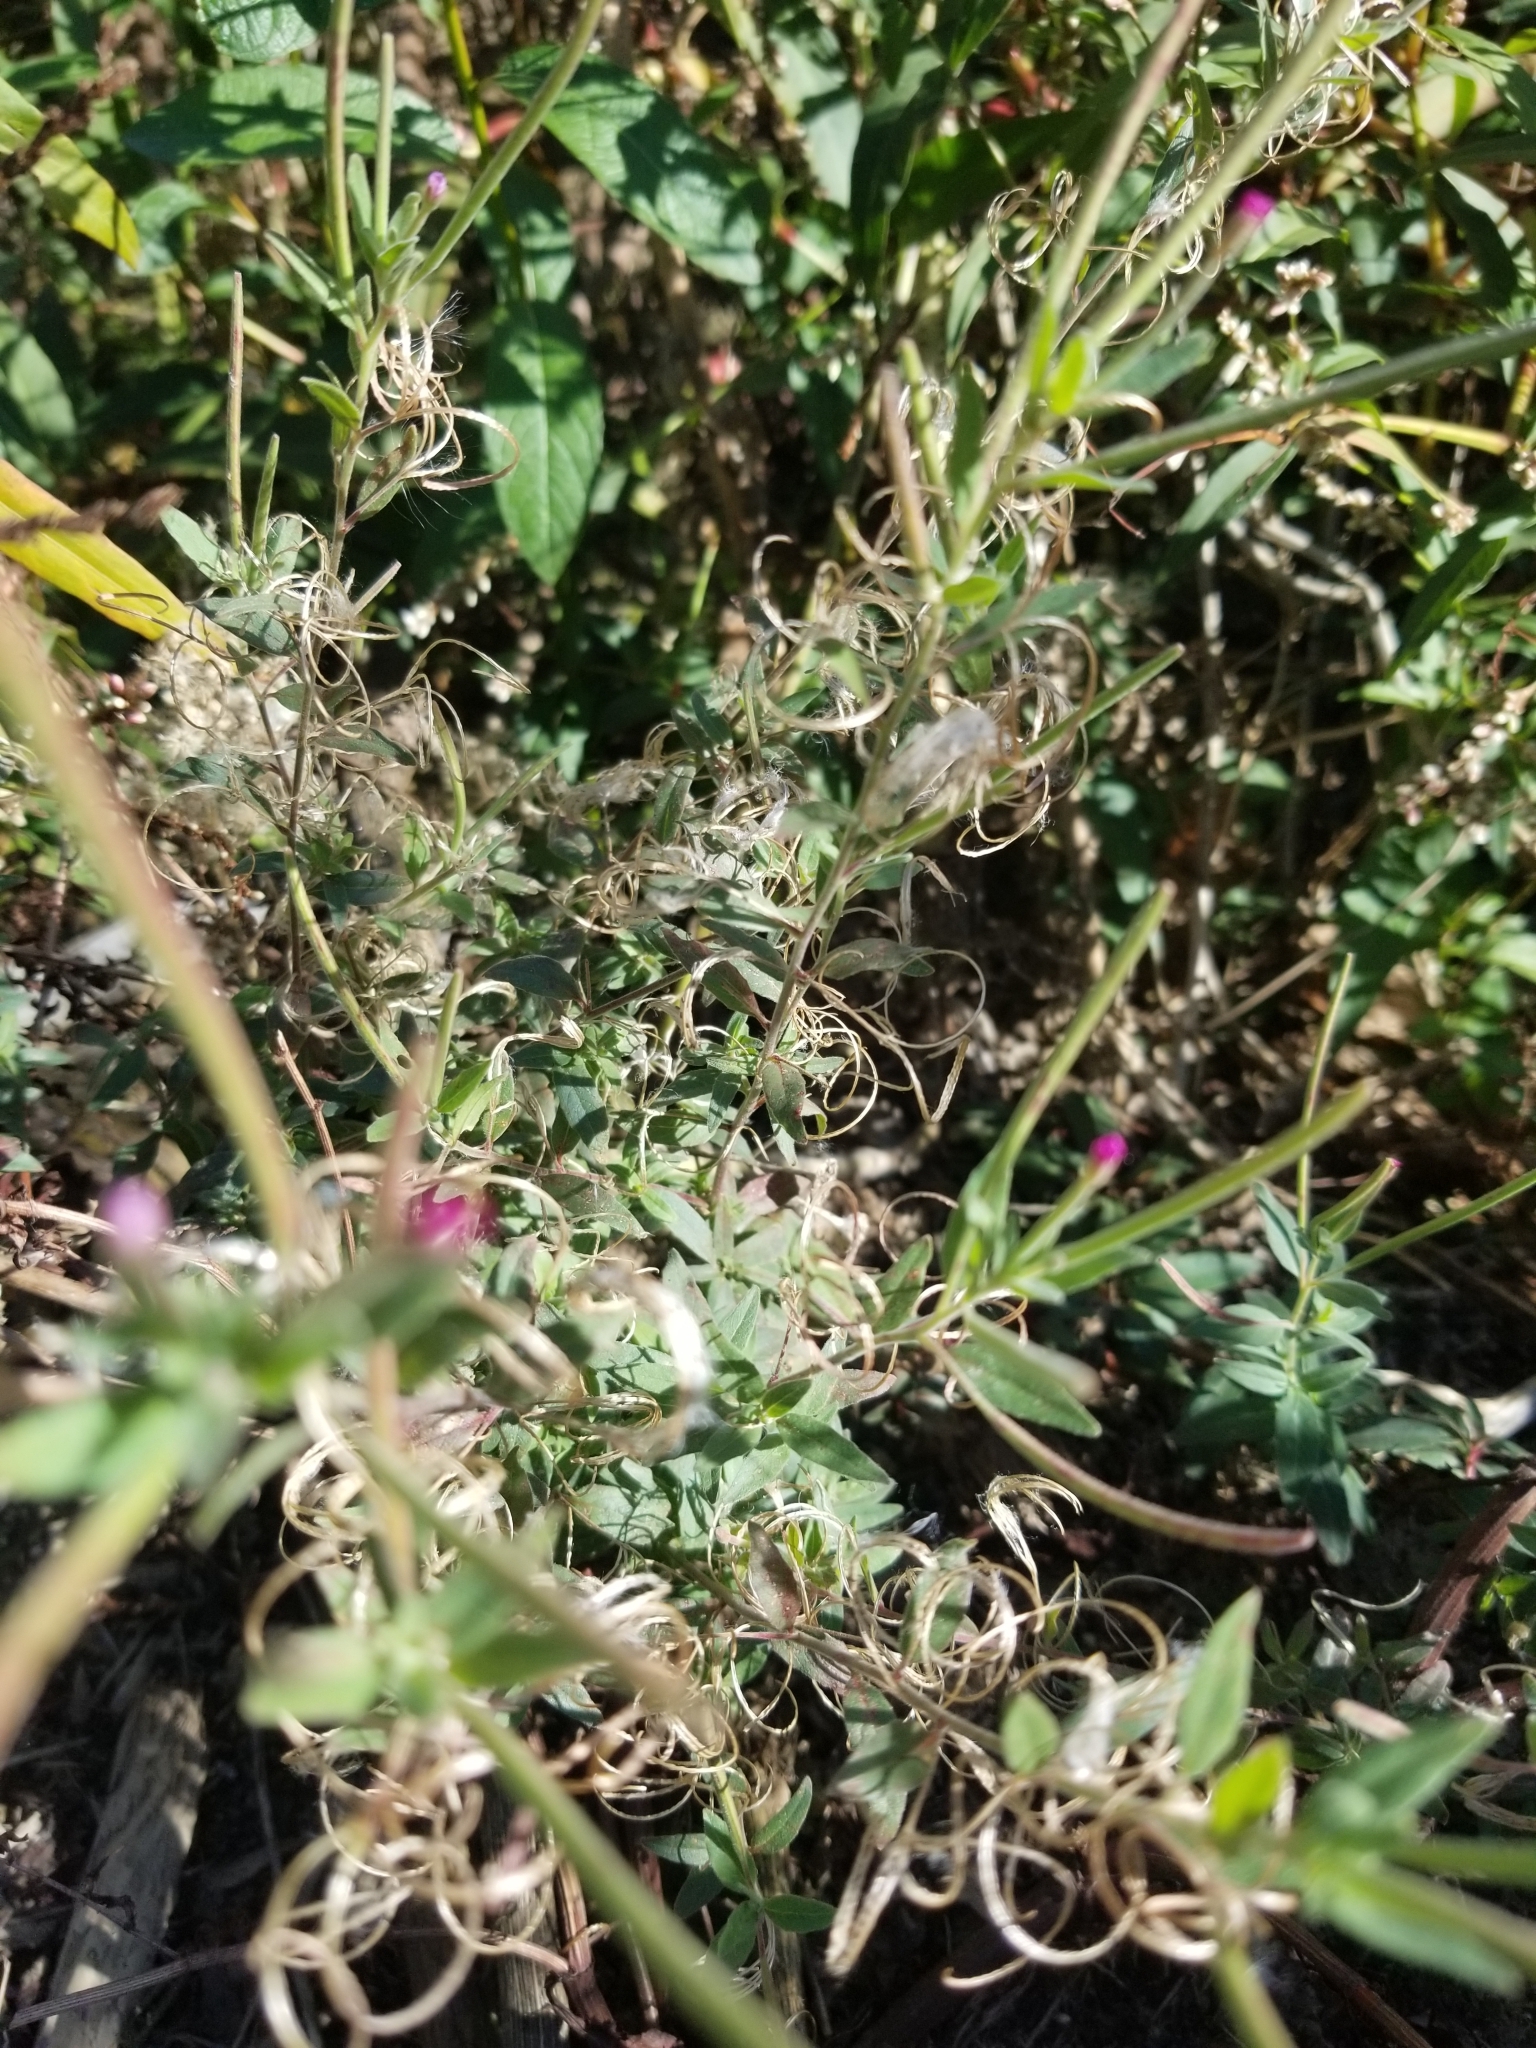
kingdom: Plantae
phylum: Tracheophyta
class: Magnoliopsida
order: Myrtales
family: Onagraceae
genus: Epilobium
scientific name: Epilobium ciliatum
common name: American willowherb
